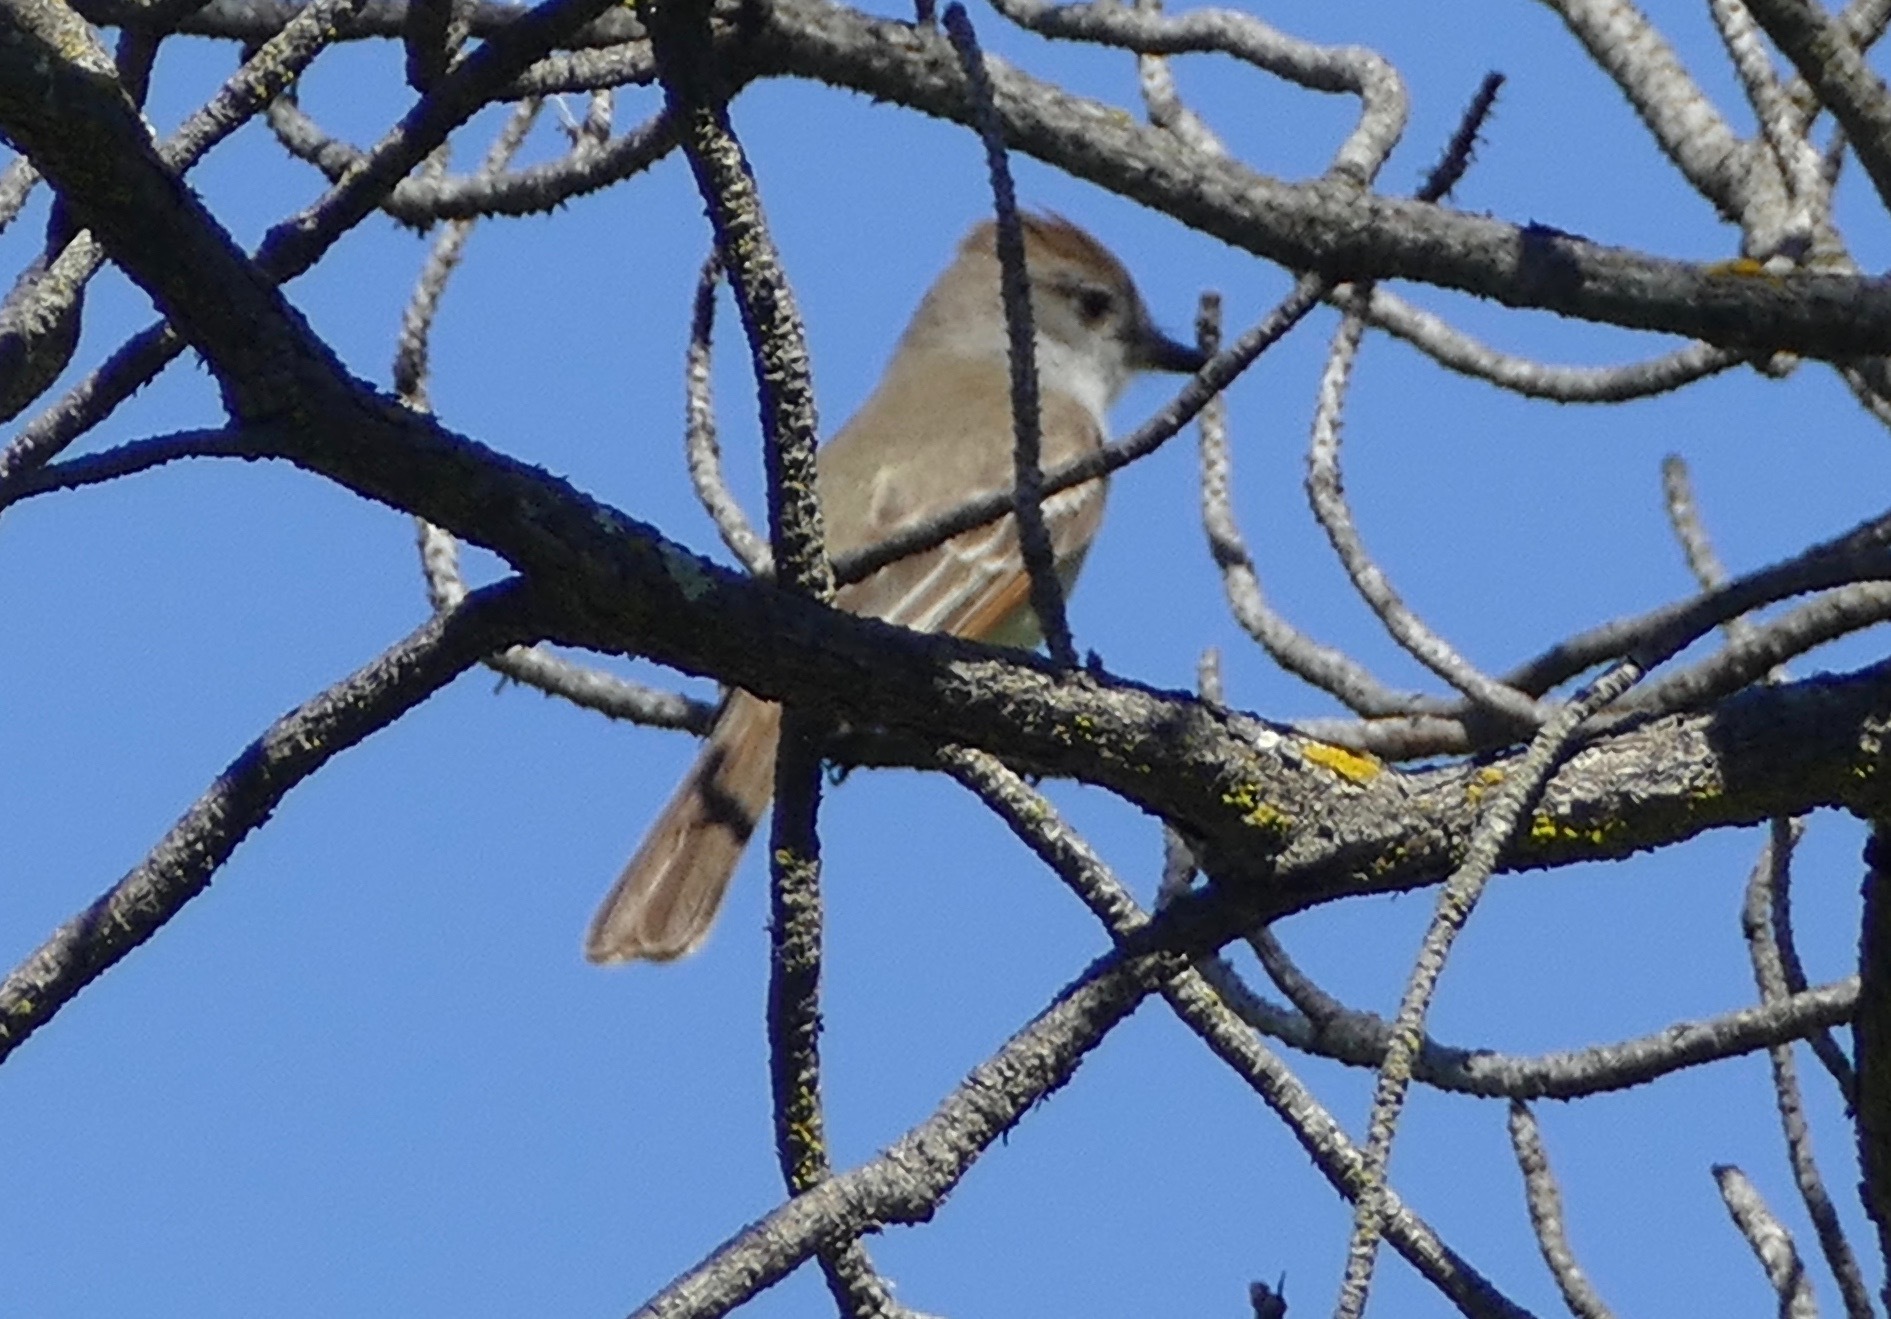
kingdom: Animalia
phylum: Chordata
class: Aves
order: Passeriformes
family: Tyrannidae
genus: Myiarchus
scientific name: Myiarchus cinerascens
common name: Ash-throated flycatcher
